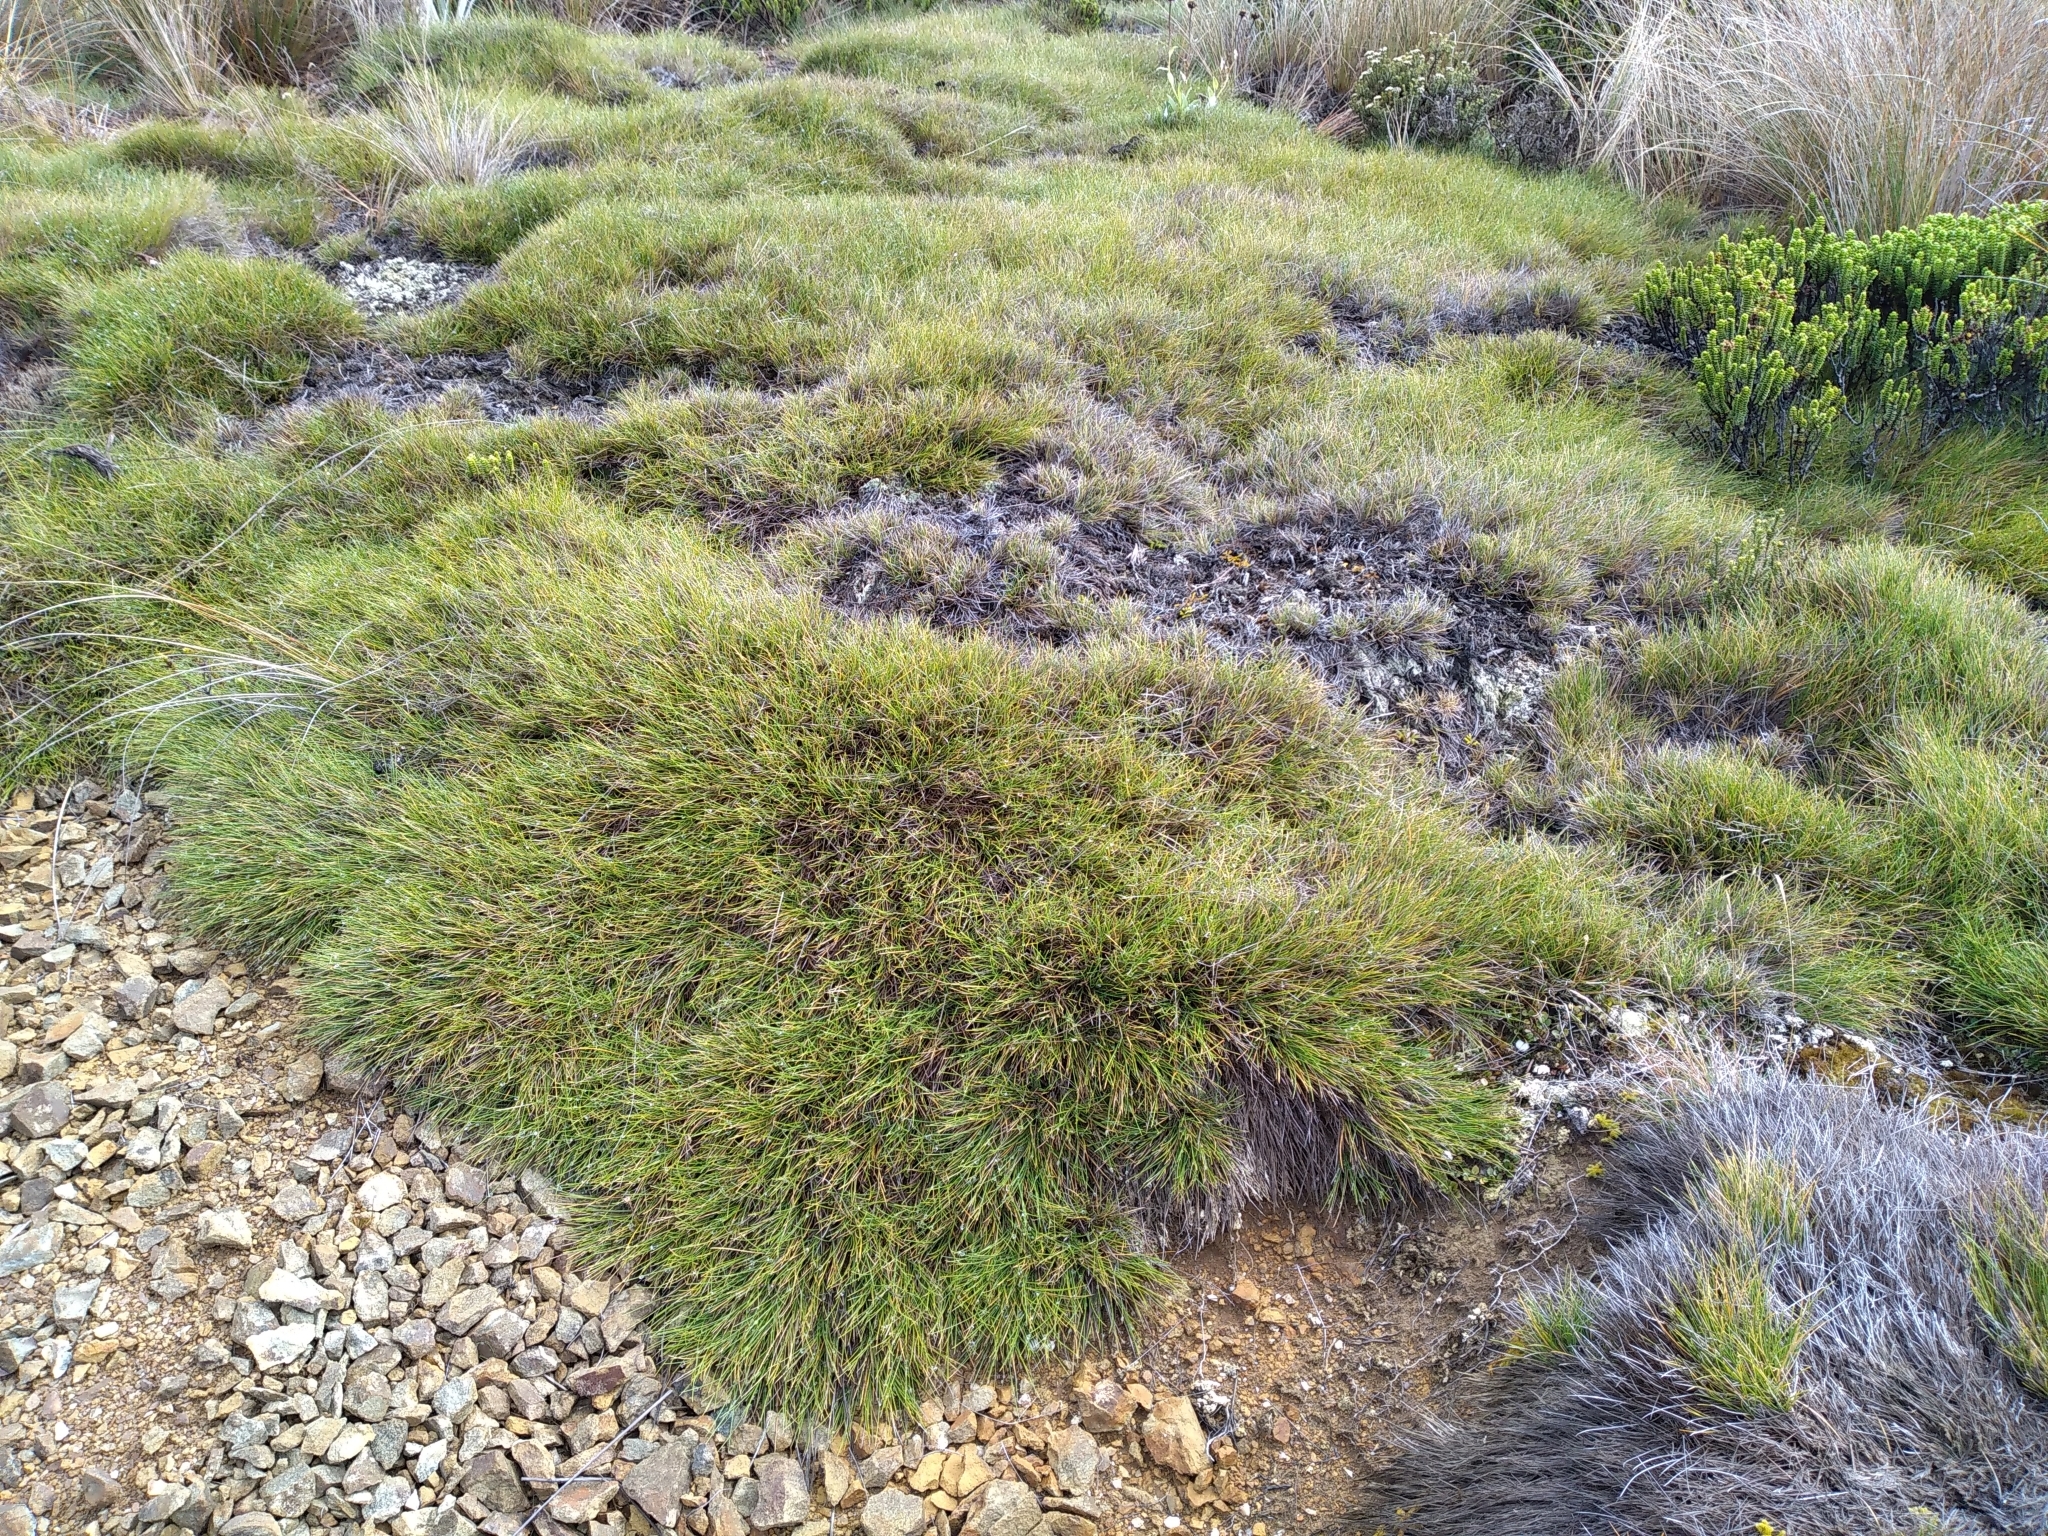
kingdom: Plantae
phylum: Tracheophyta
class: Liliopsida
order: Poales
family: Poaceae
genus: Chionochloa
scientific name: Chionochloa australis
